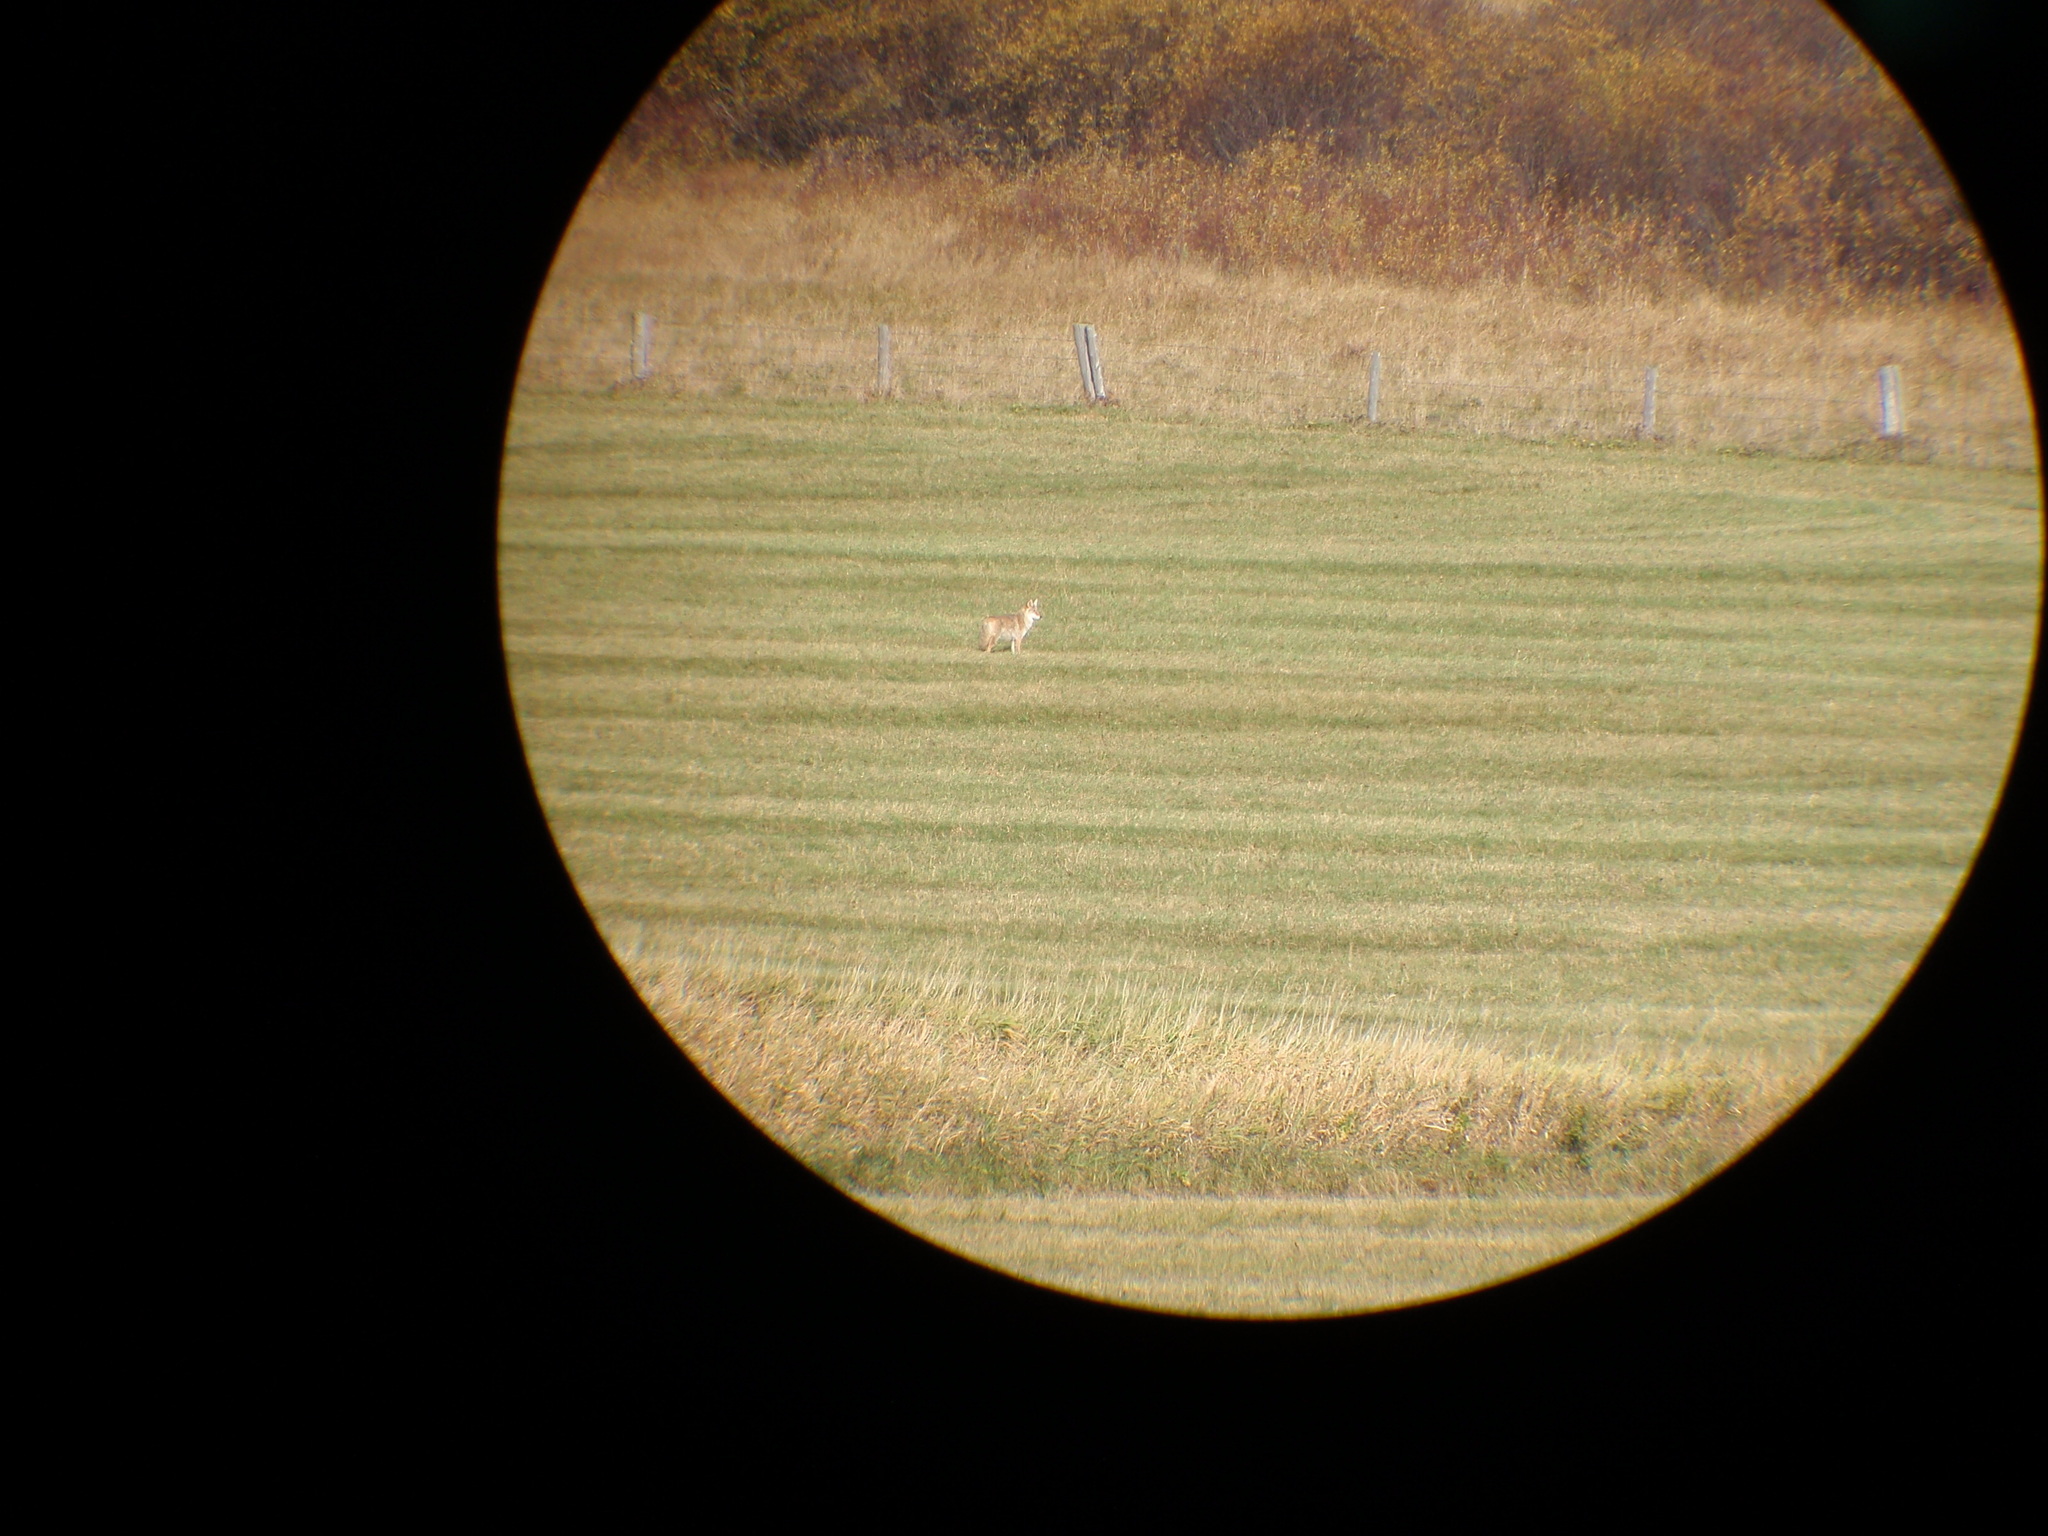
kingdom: Animalia
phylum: Chordata
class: Mammalia
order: Carnivora
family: Canidae
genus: Canis
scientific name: Canis latrans
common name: Coyote
